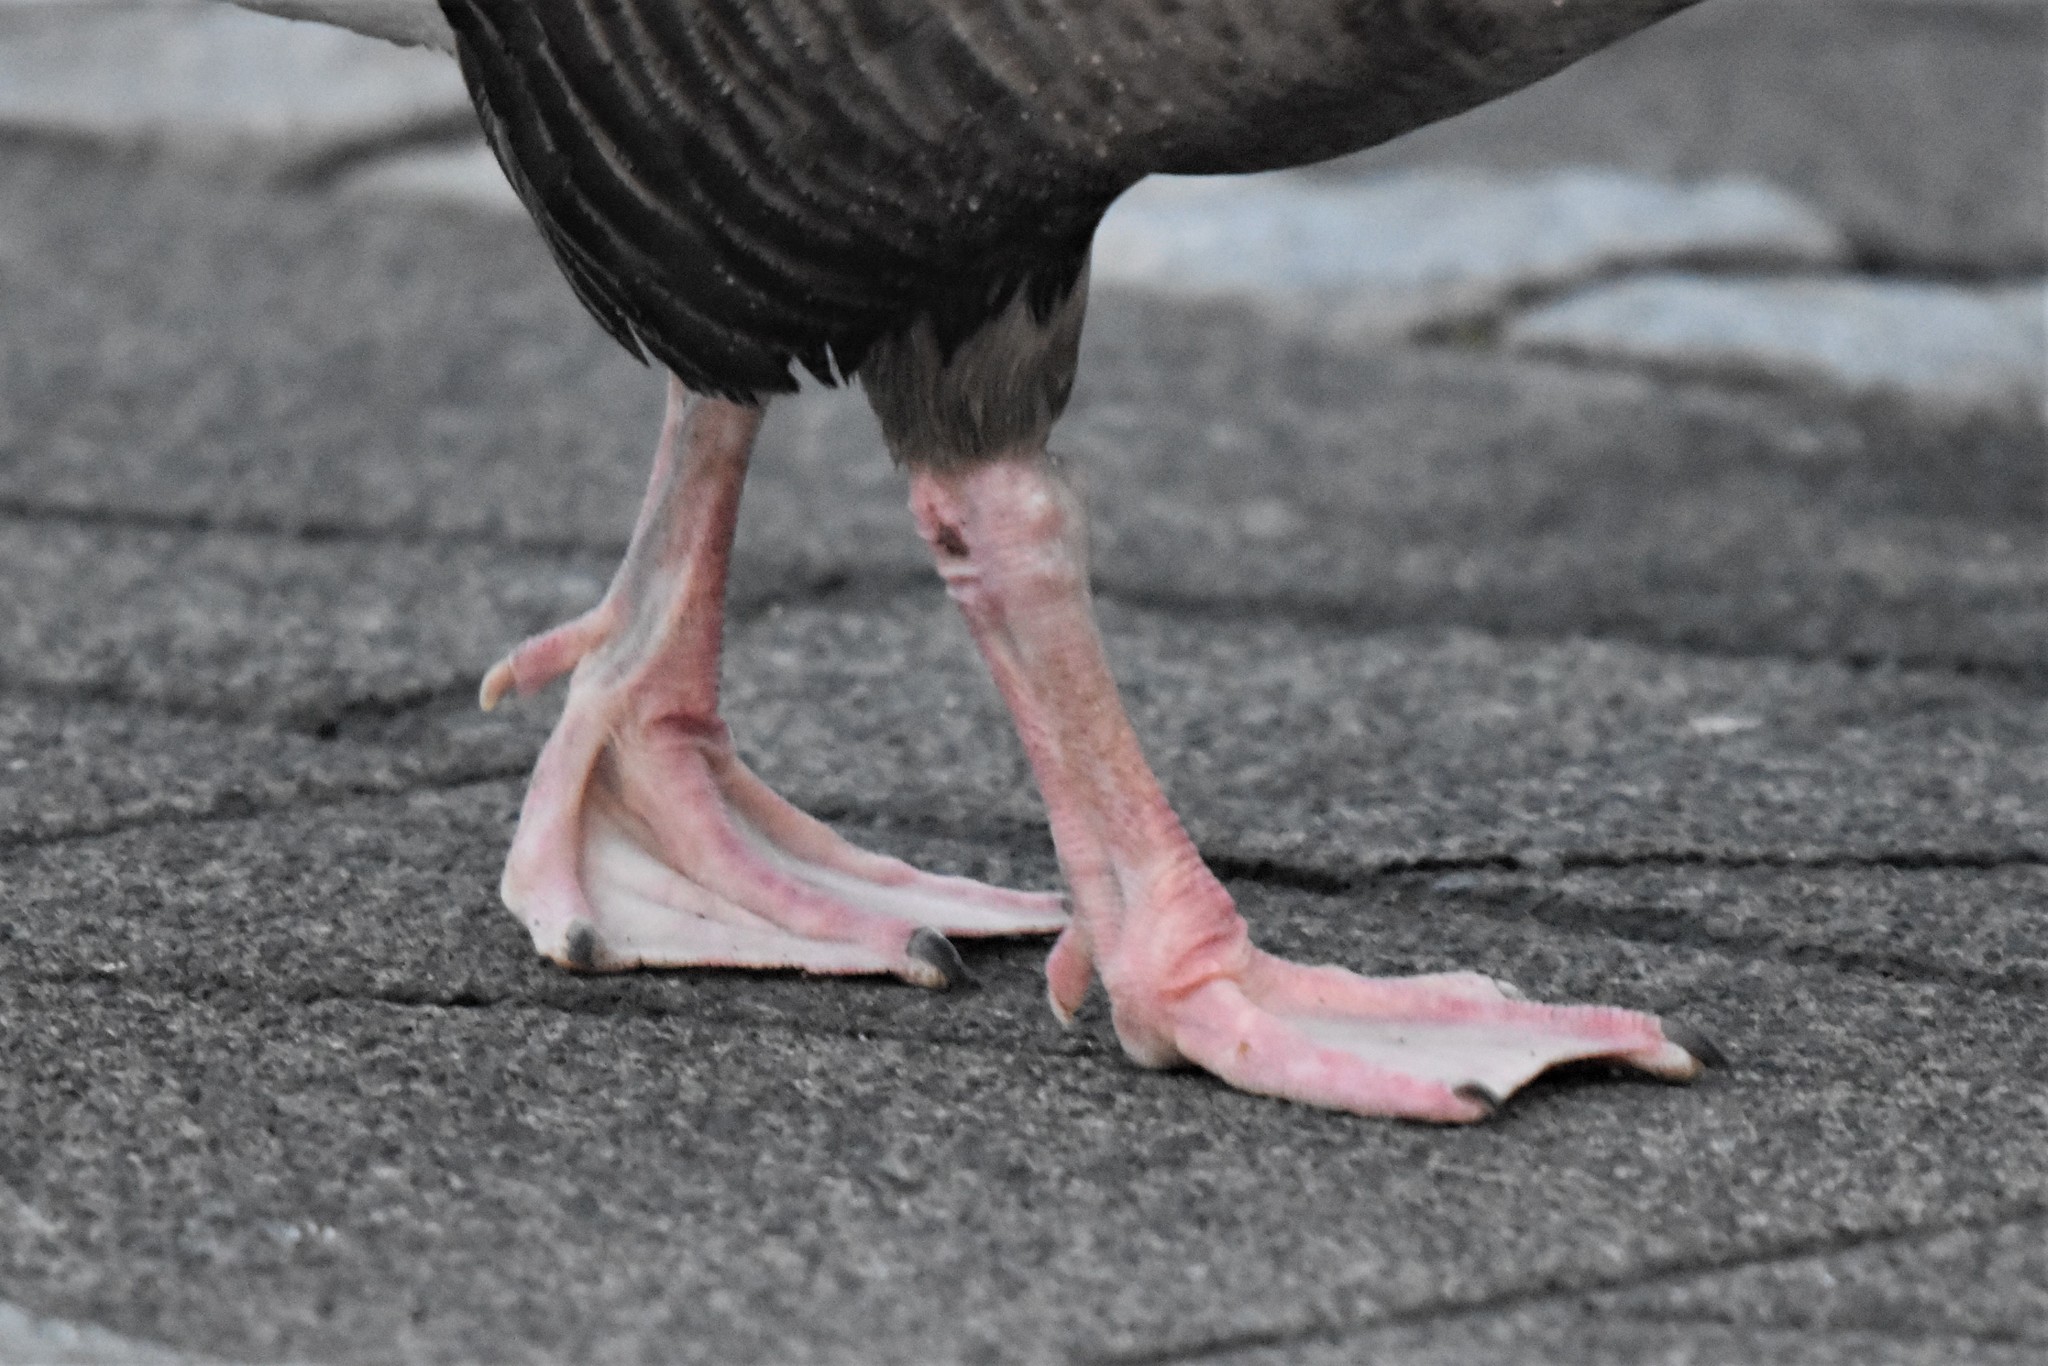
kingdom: Animalia
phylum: Chordata
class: Aves
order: Anseriformes
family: Anatidae
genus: Anser
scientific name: Anser brachyrhynchus
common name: Pink-footed goose
